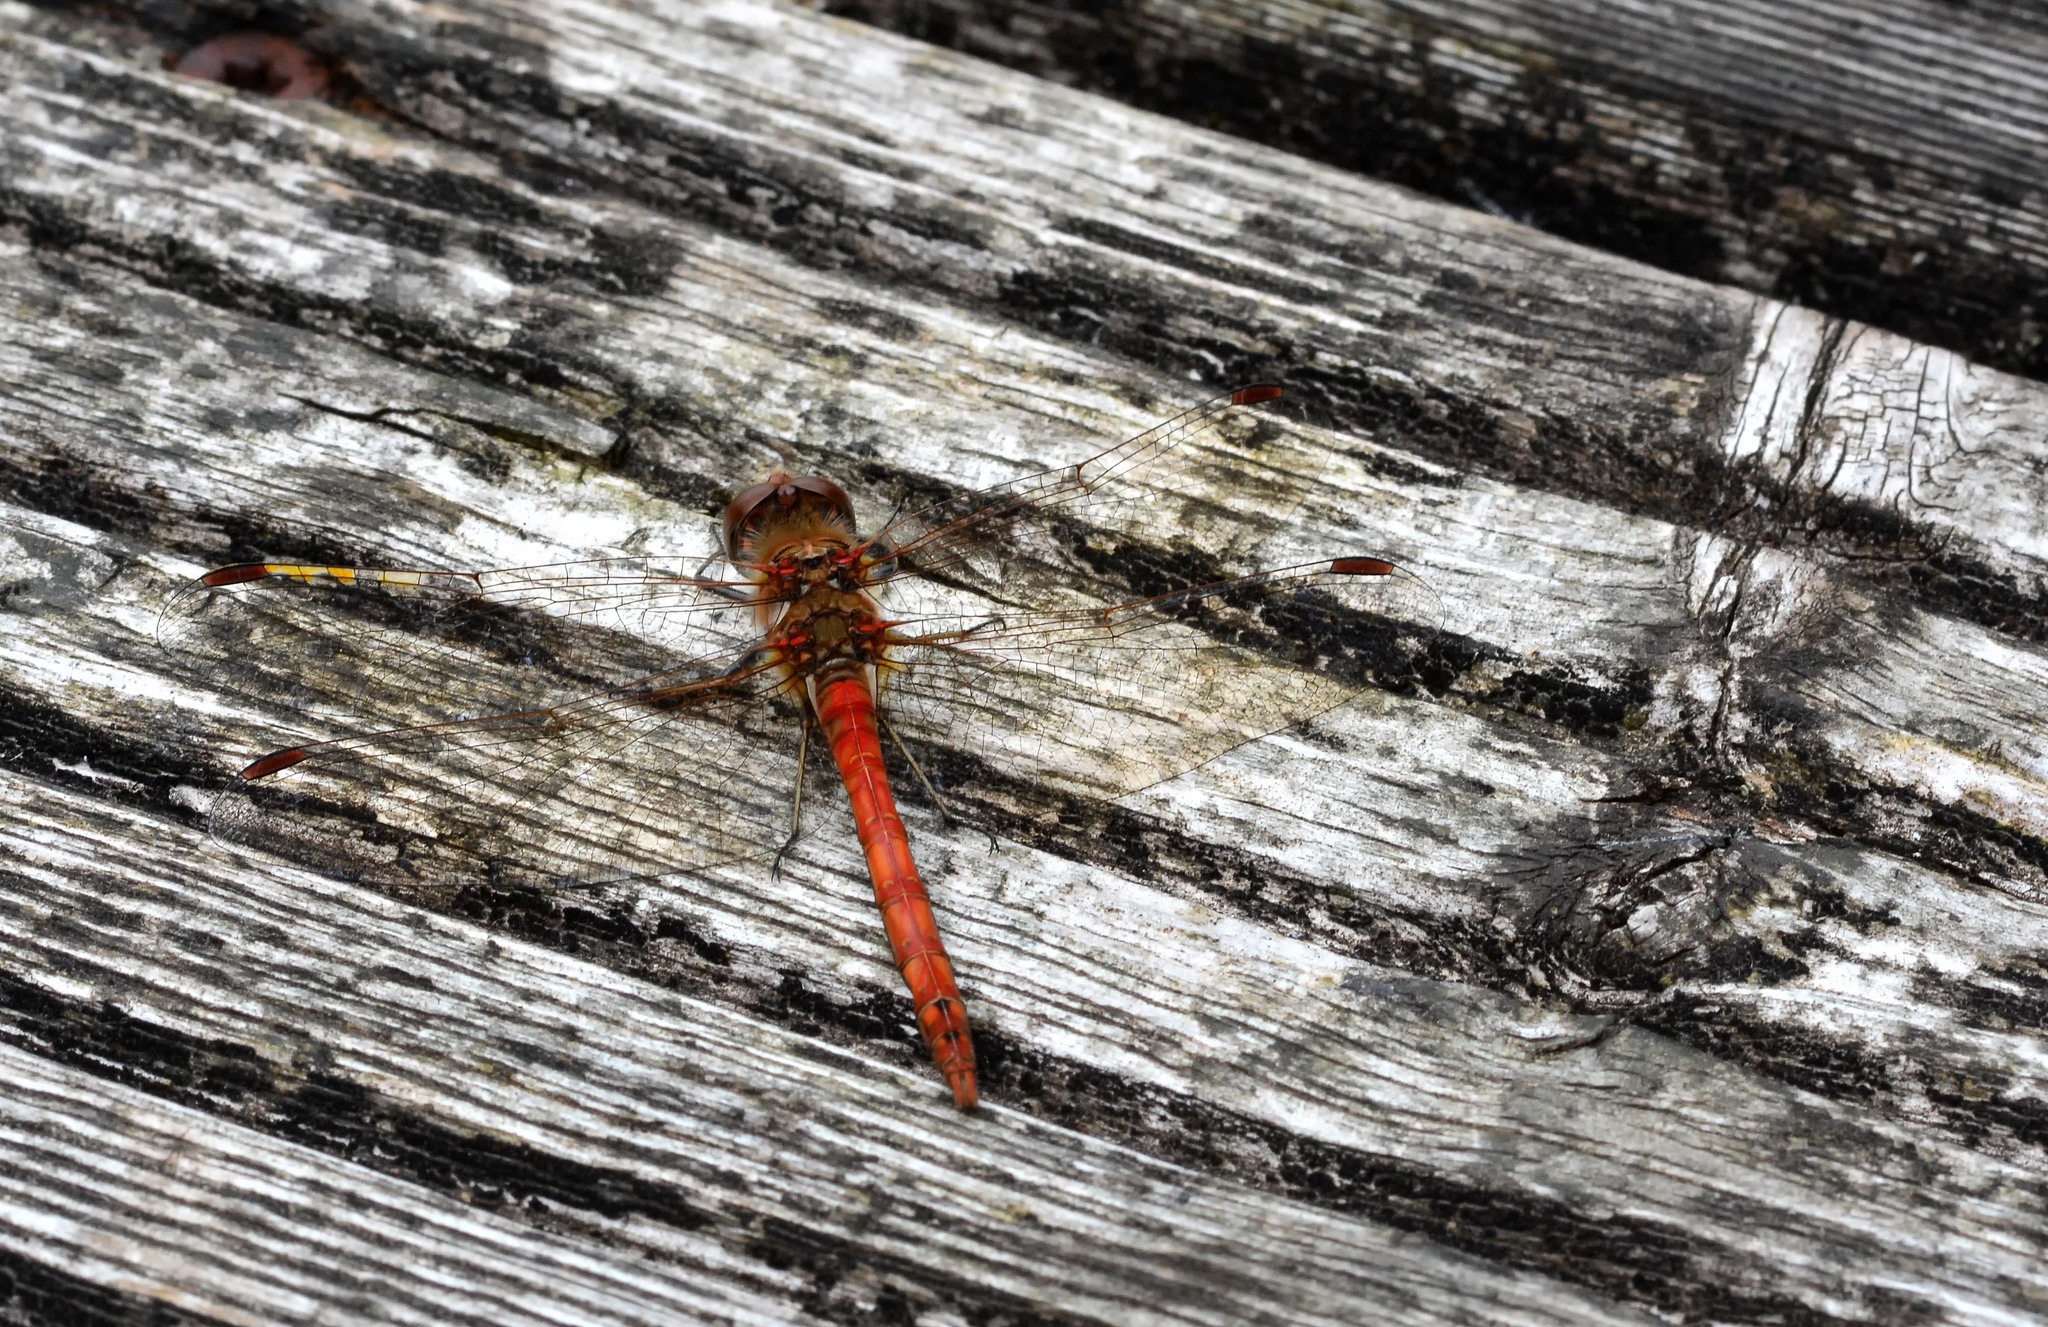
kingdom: Animalia
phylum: Arthropoda
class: Insecta
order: Odonata
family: Libellulidae
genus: Sympetrum
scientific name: Sympetrum striolatum
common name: Common darter
